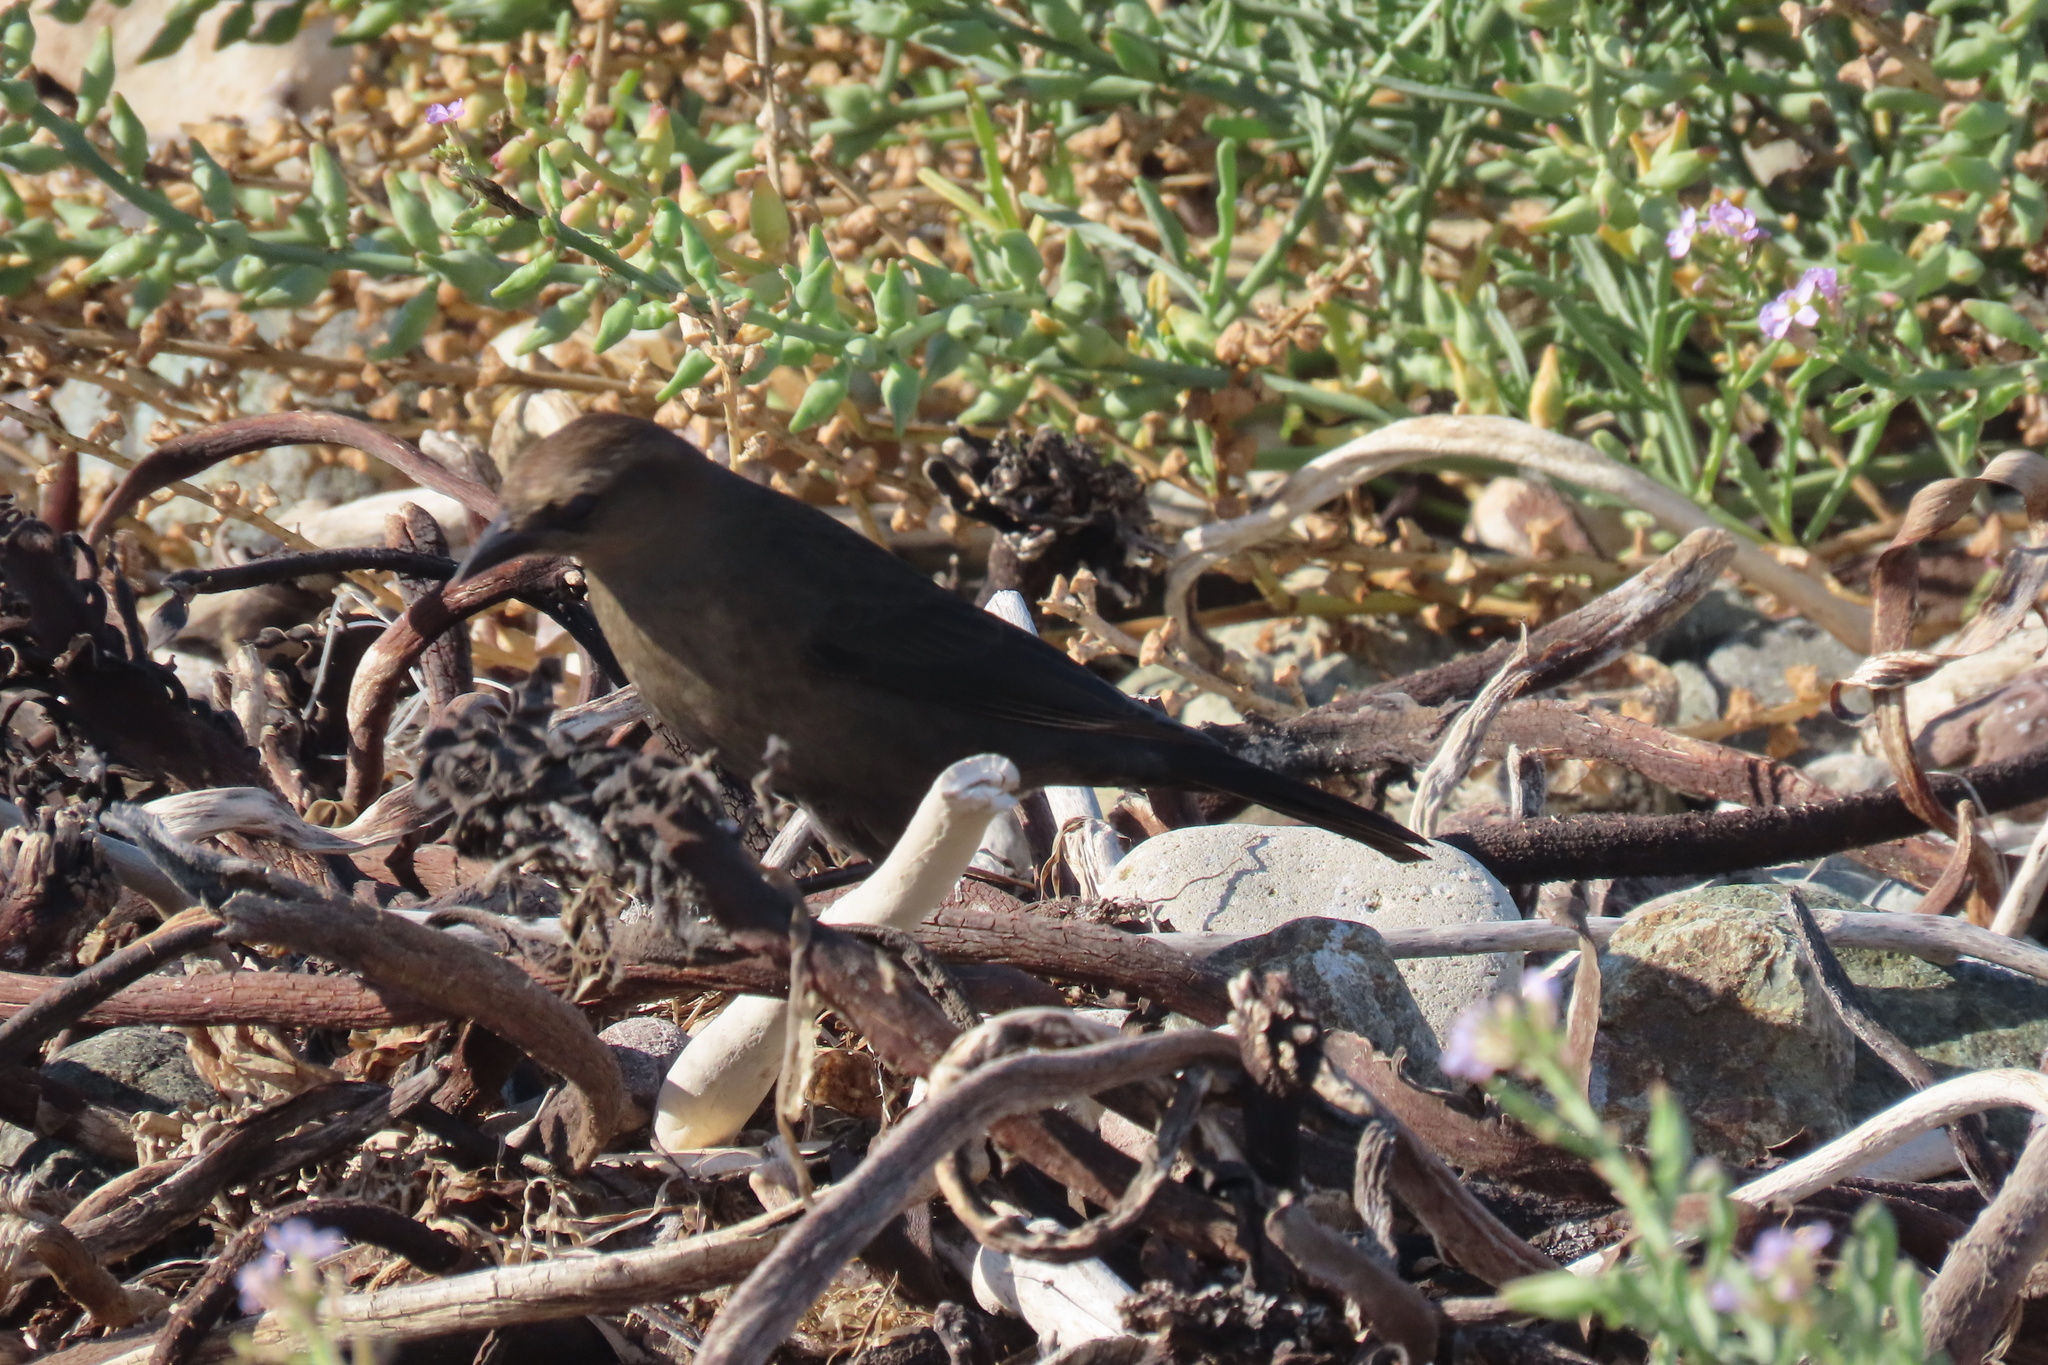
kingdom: Animalia
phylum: Chordata
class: Aves
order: Passeriformes
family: Icteridae
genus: Euphagus
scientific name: Euphagus cyanocephalus
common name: Brewer's blackbird
